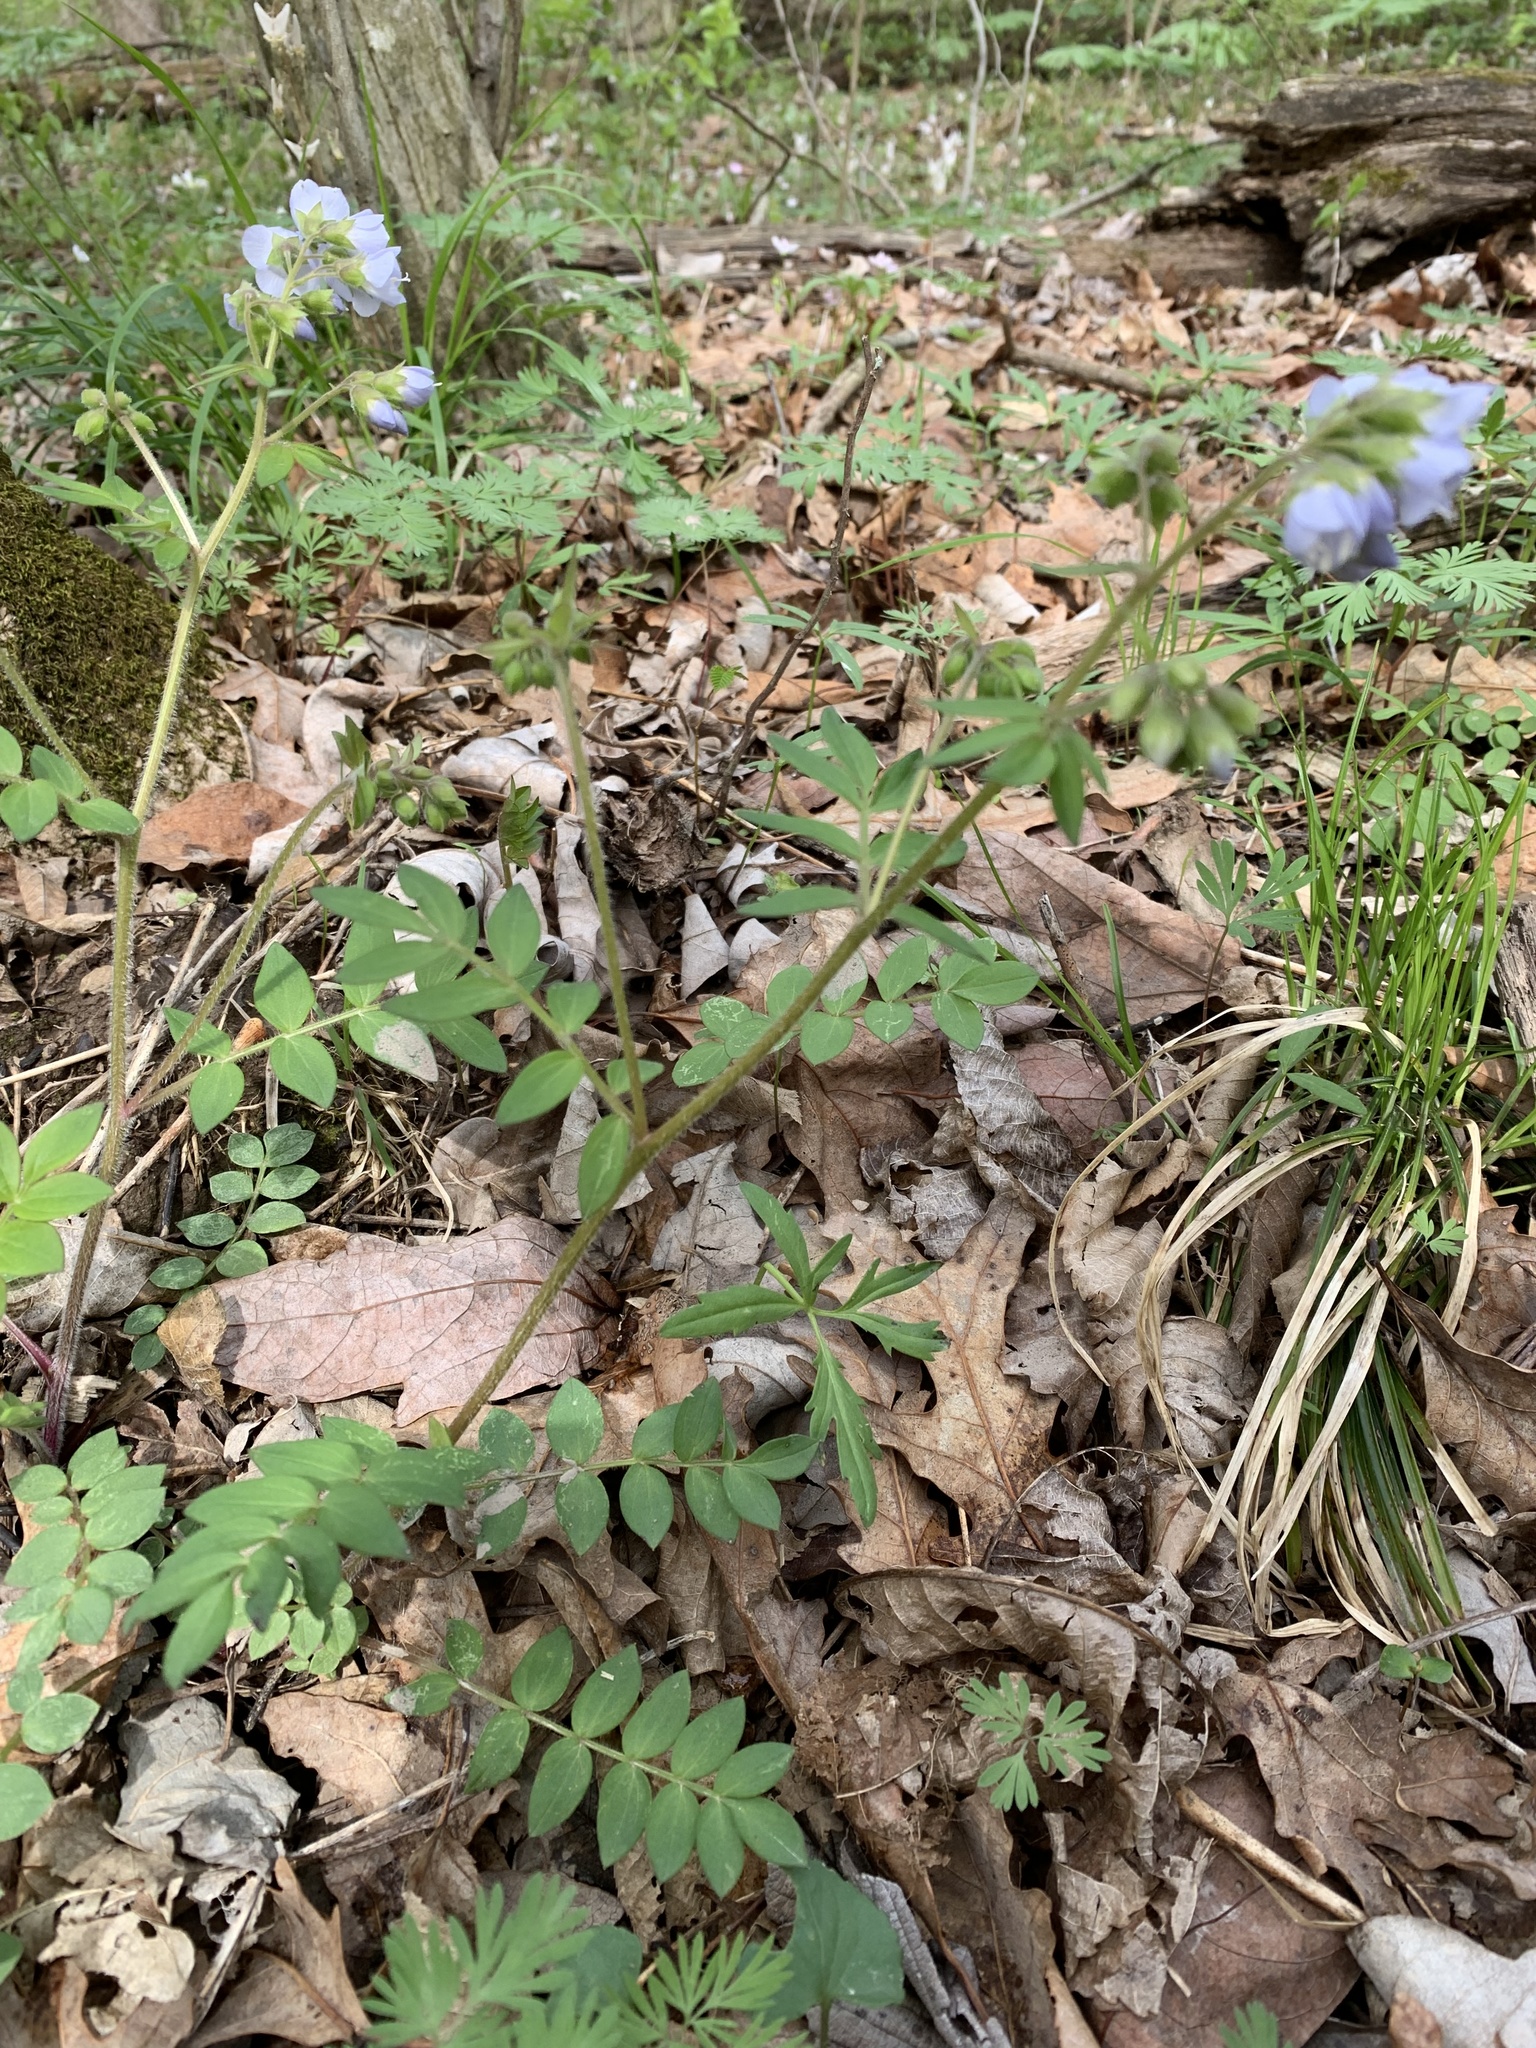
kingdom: Plantae
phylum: Tracheophyta
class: Magnoliopsida
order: Ericales
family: Polemoniaceae
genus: Polemonium
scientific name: Polemonium reptans
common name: Creeping jacob's-ladder
